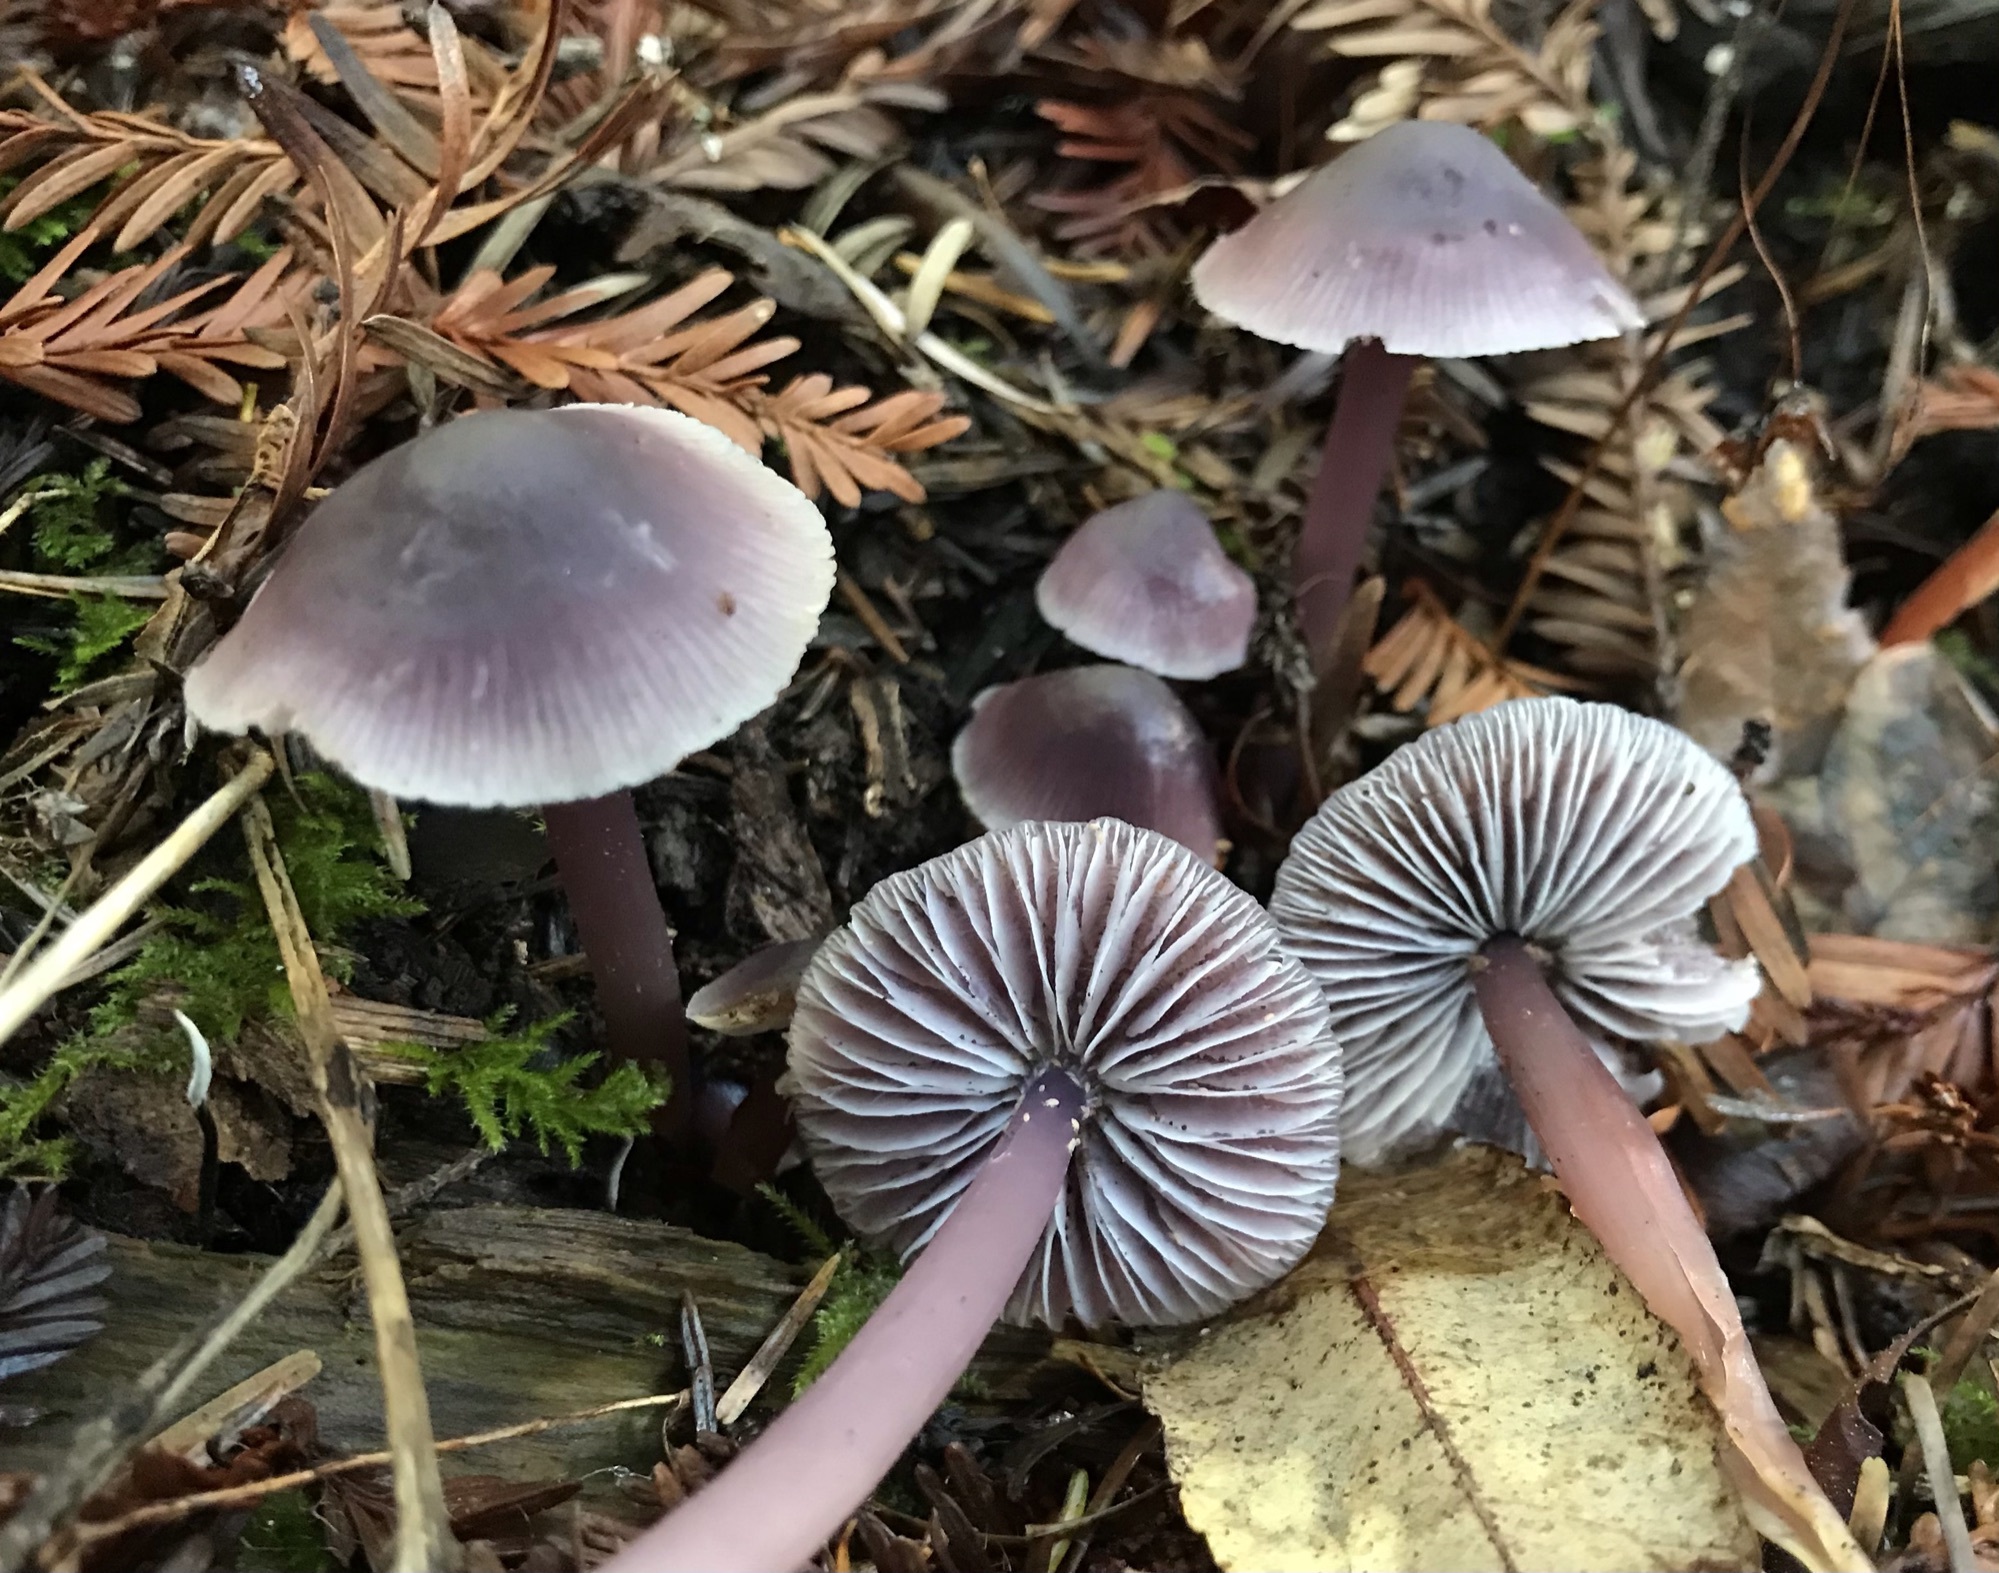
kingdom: Fungi
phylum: Basidiomycota
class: Agaricomycetes
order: Agaricales
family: Mycenaceae
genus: Mycena
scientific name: Mycena pura
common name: Lilac bonnet
